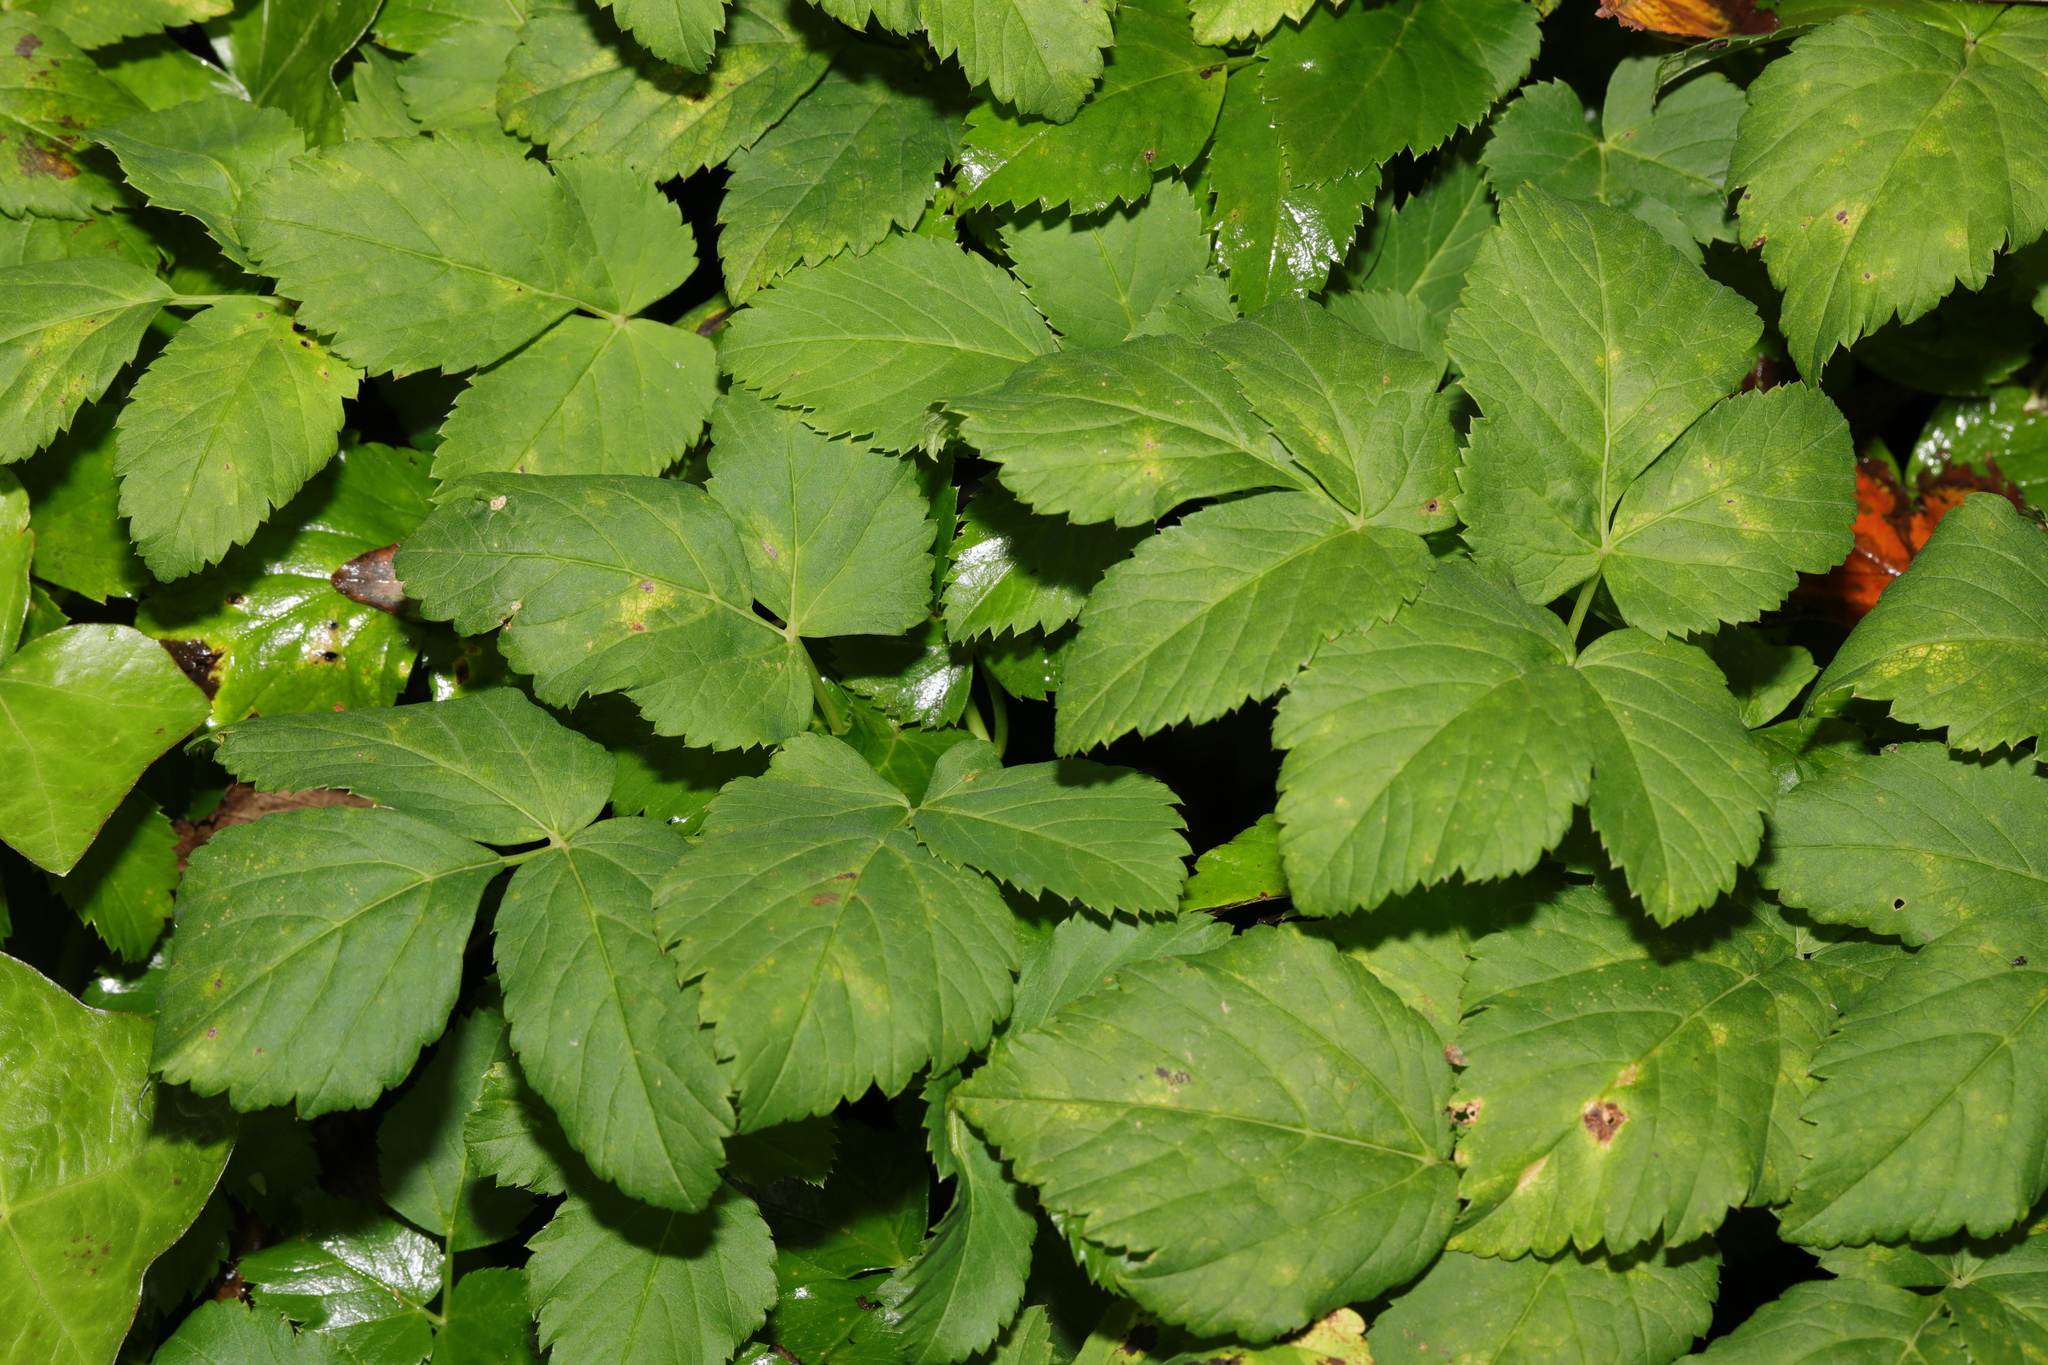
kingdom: Plantae
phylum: Tracheophyta
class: Magnoliopsida
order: Apiales
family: Apiaceae
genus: Aegopodium
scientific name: Aegopodium podagraria
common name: Ground-elder
